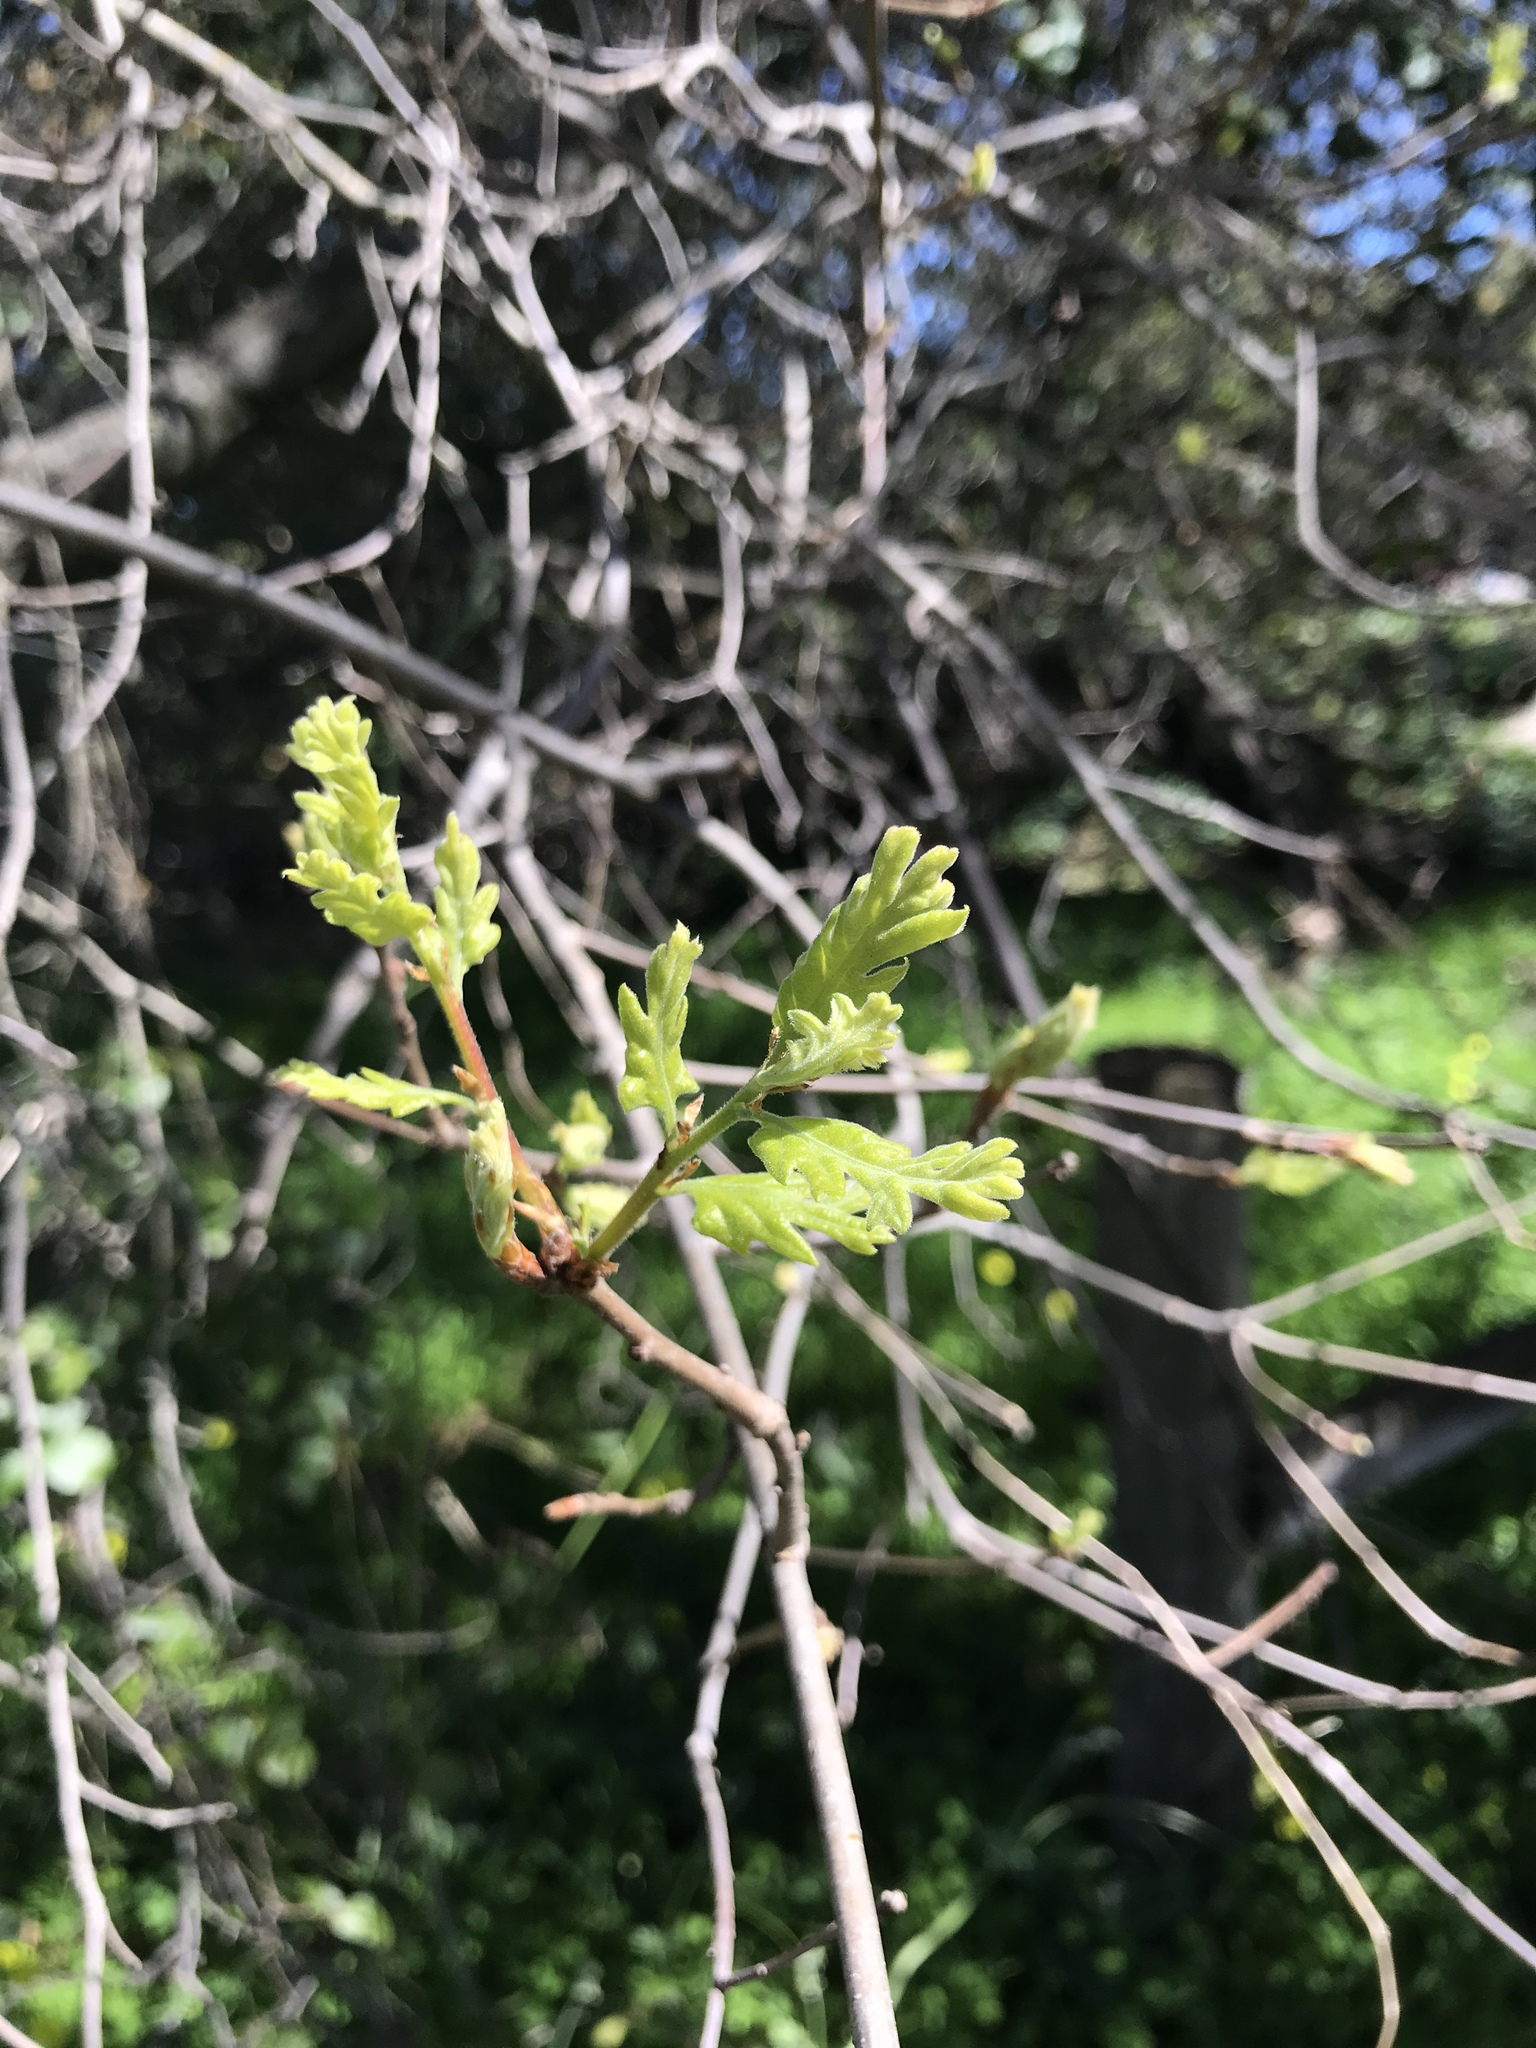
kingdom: Plantae
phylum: Tracheophyta
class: Magnoliopsida
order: Fagales
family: Fagaceae
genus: Quercus
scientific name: Quercus lobata
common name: Valley oak
